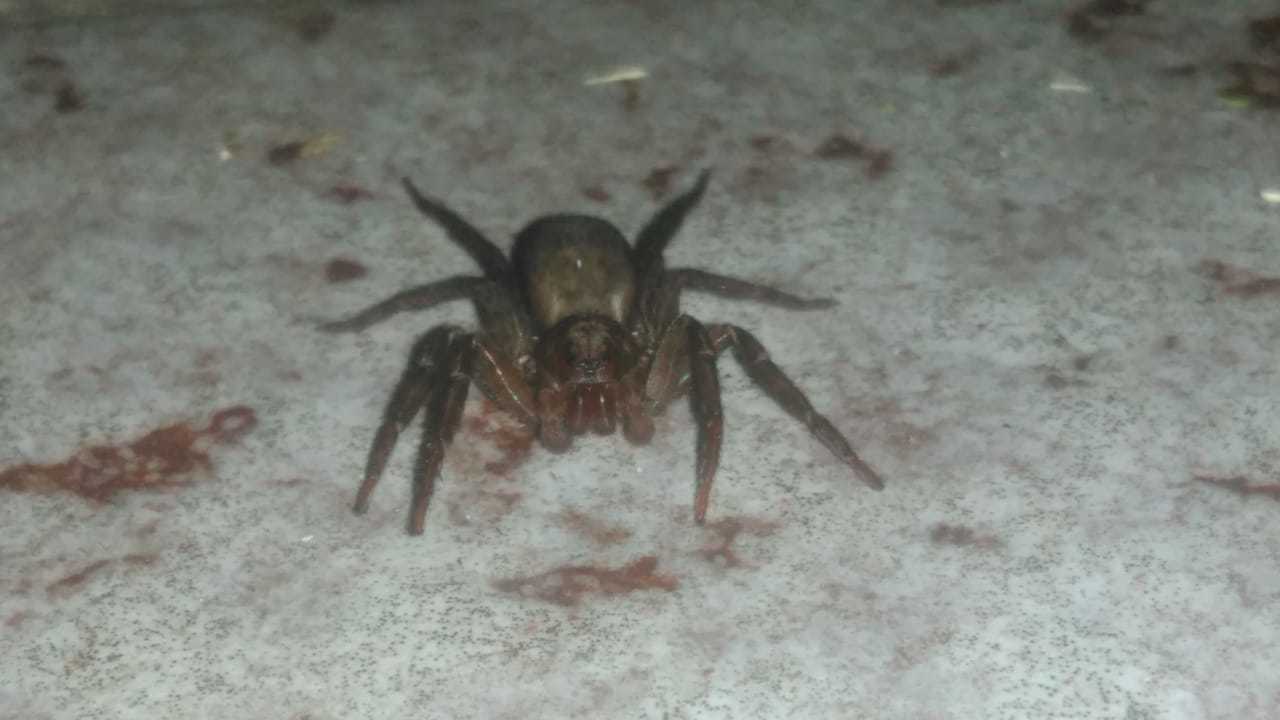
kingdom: Animalia
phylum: Arthropoda
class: Arachnida
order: Araneae
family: Ctenidae
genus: Asthenoctenus
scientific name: Asthenoctenus borellii
